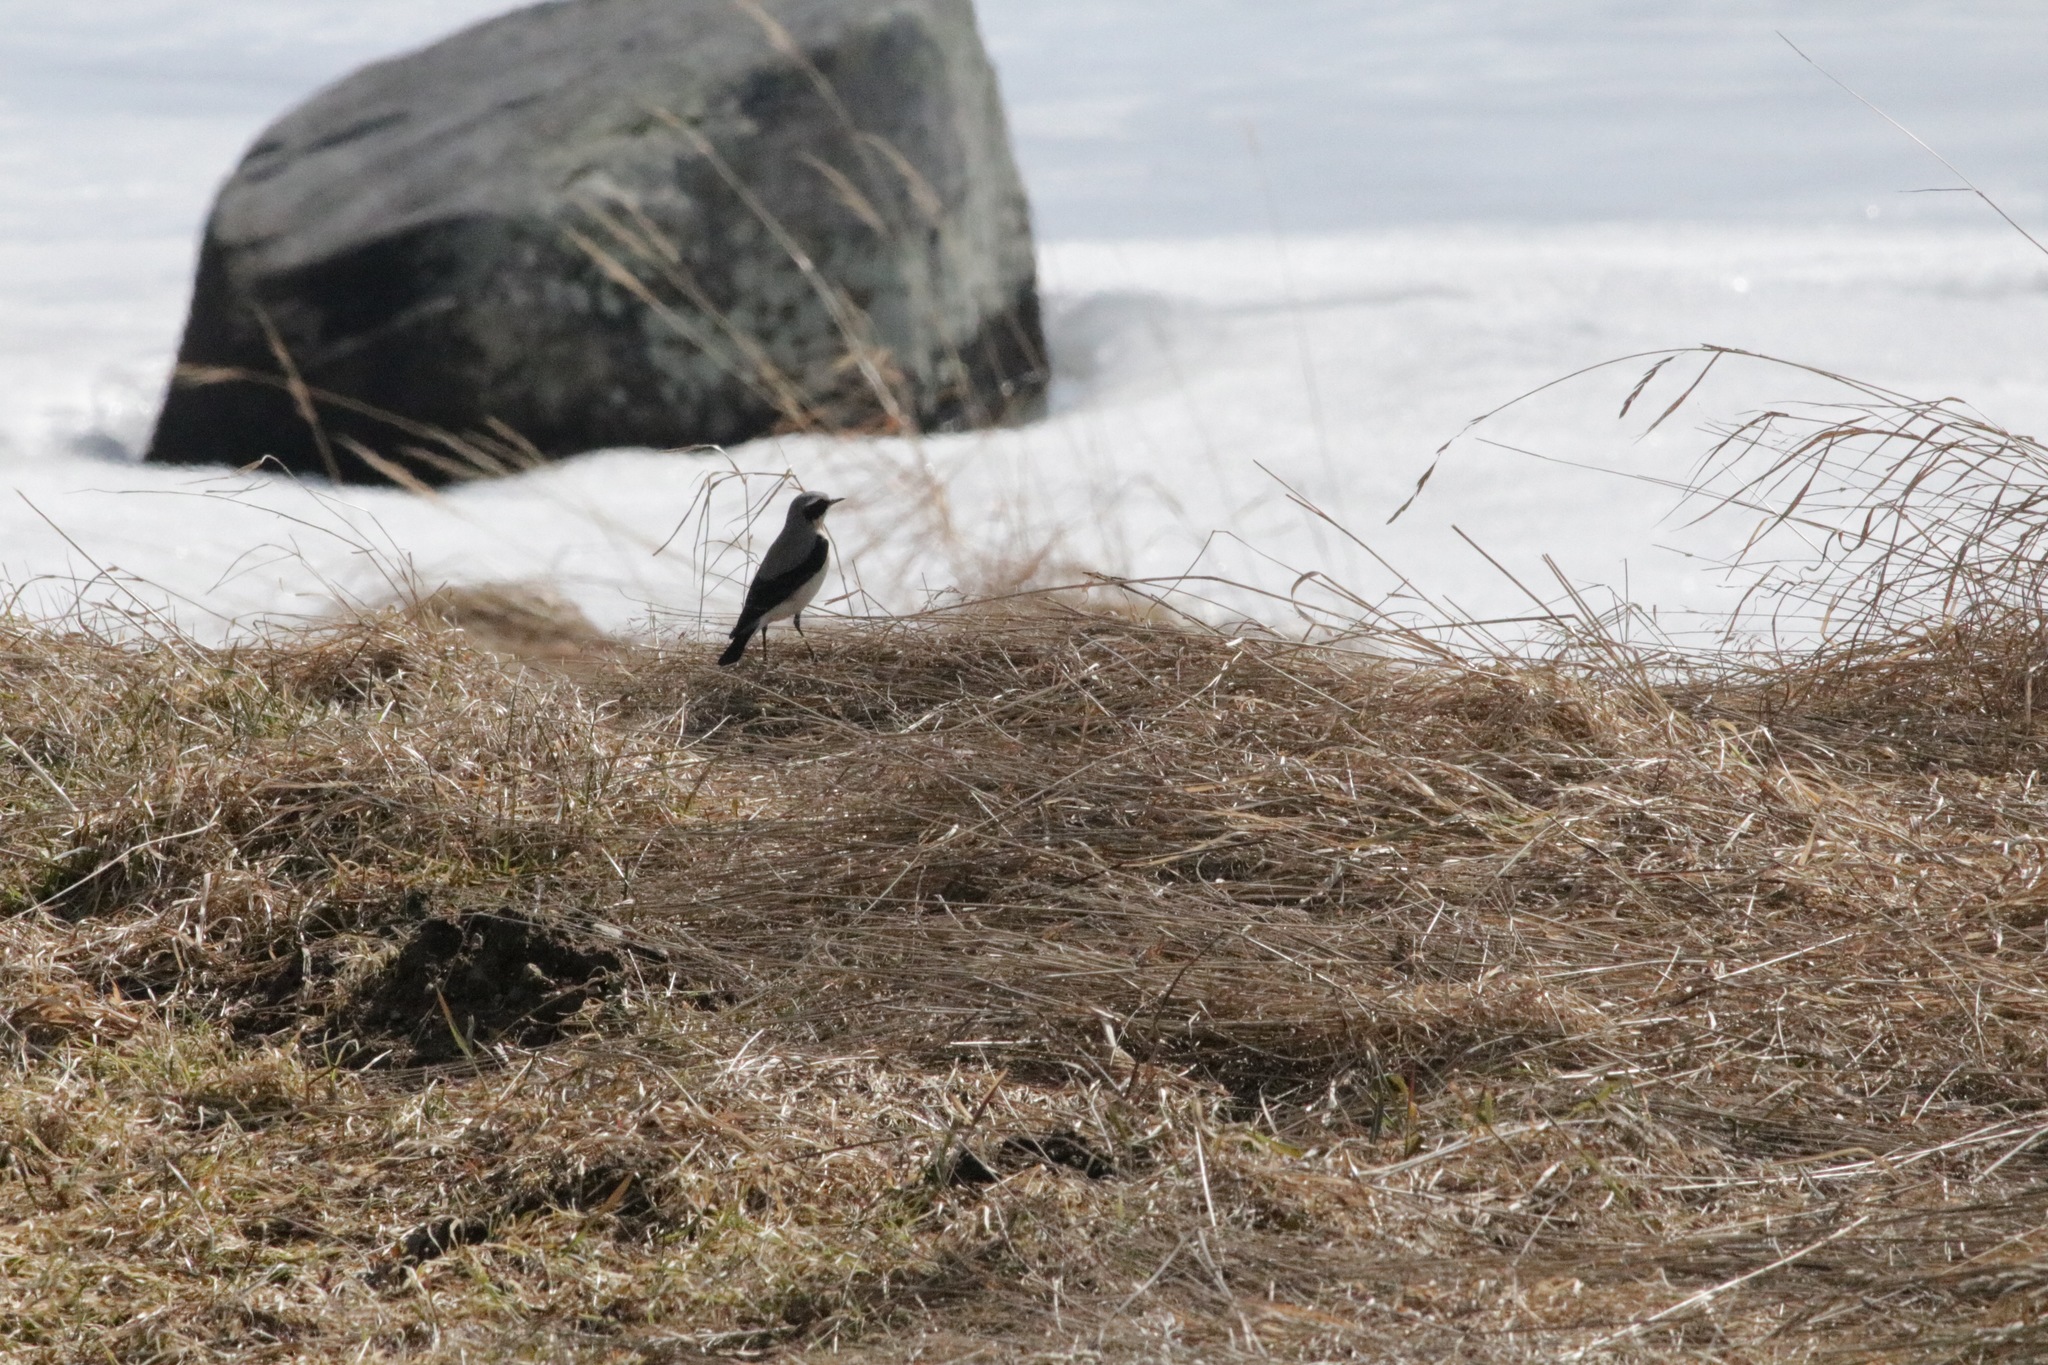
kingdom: Animalia
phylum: Chordata
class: Aves
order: Passeriformes
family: Muscicapidae
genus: Oenanthe
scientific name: Oenanthe oenanthe
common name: Northern wheatear
